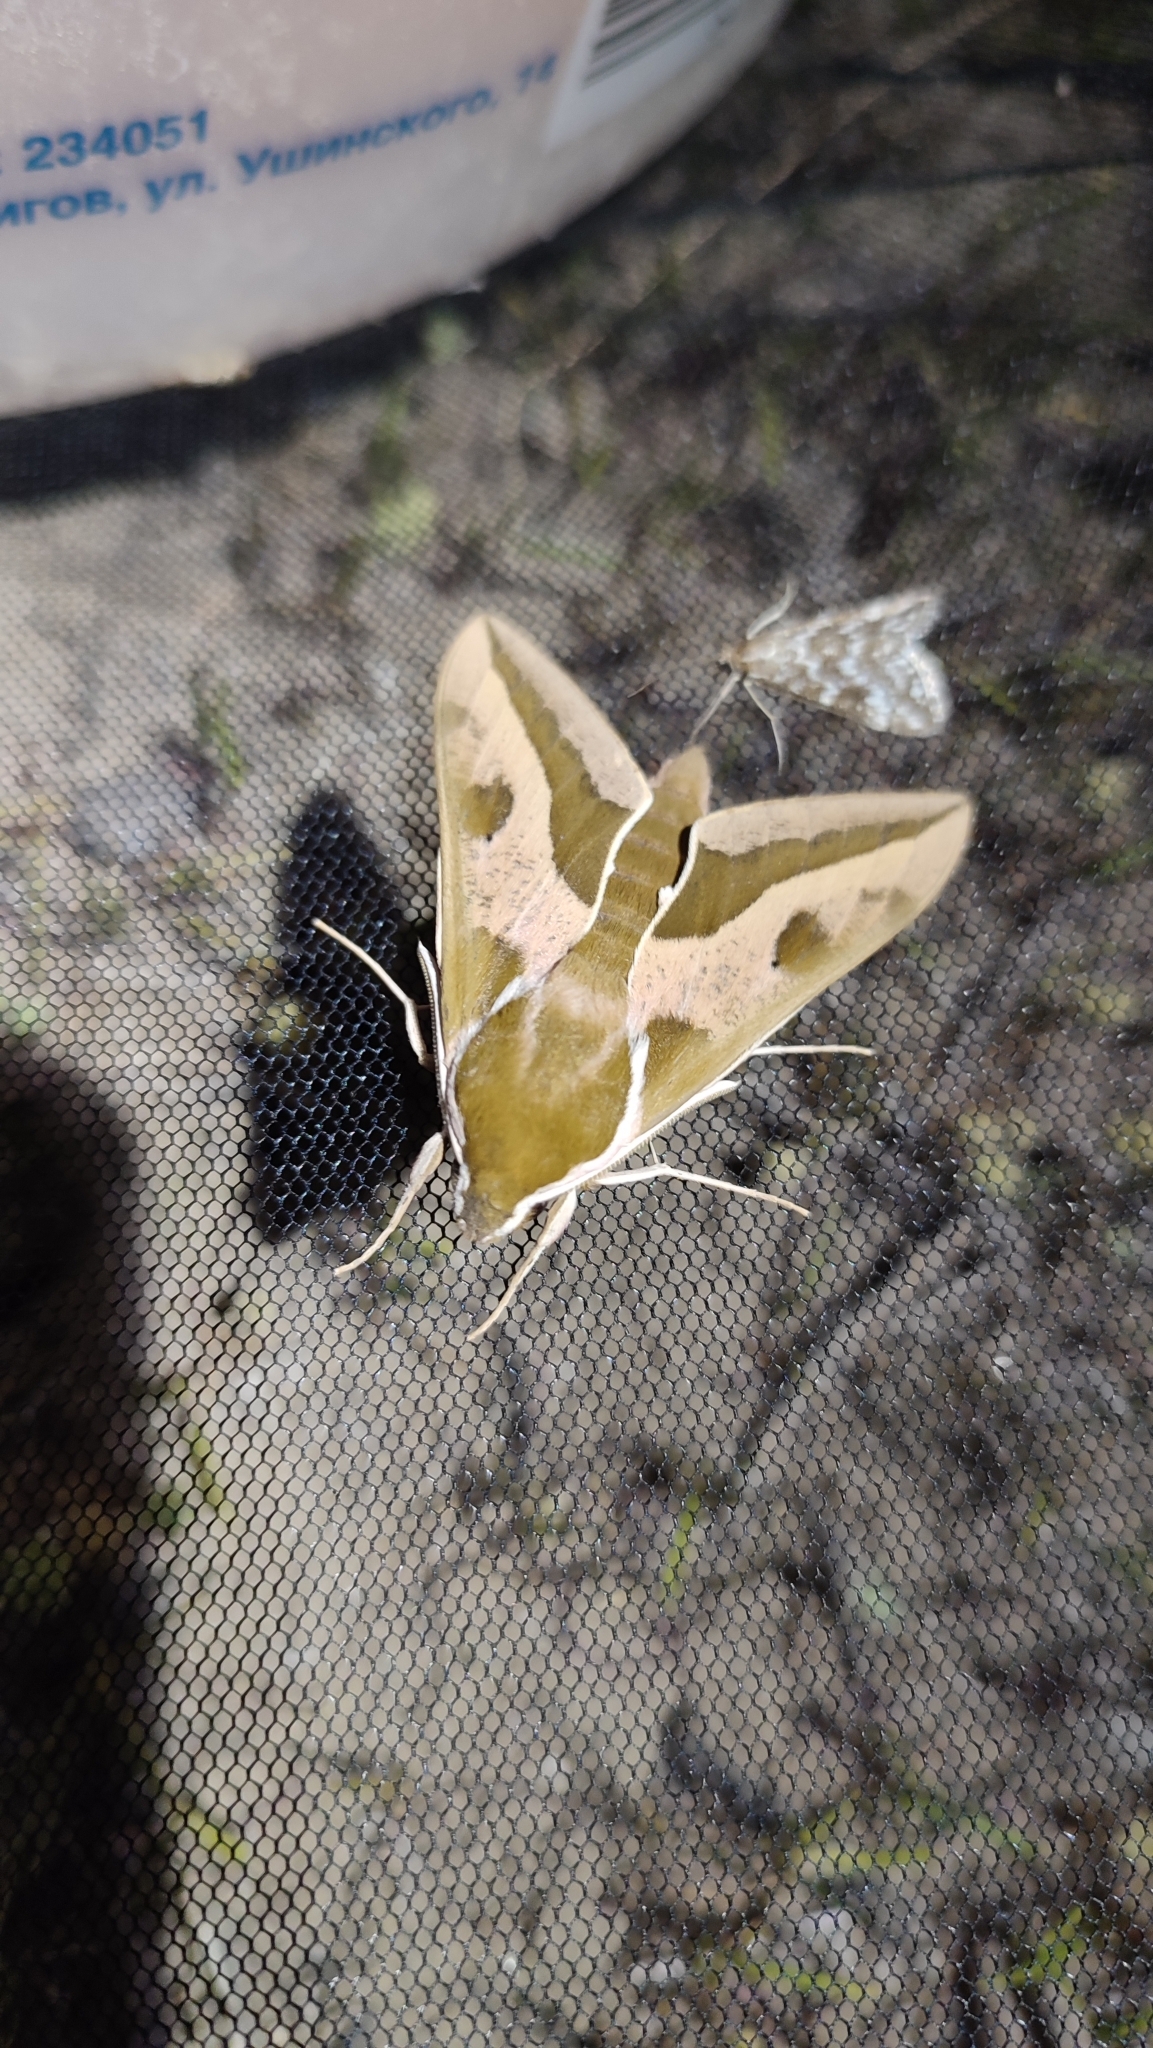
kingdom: Animalia
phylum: Arthropoda
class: Insecta
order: Lepidoptera
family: Sphingidae
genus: Hyles
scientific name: Hyles euphorbiae
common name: Spurge hawk-moth
